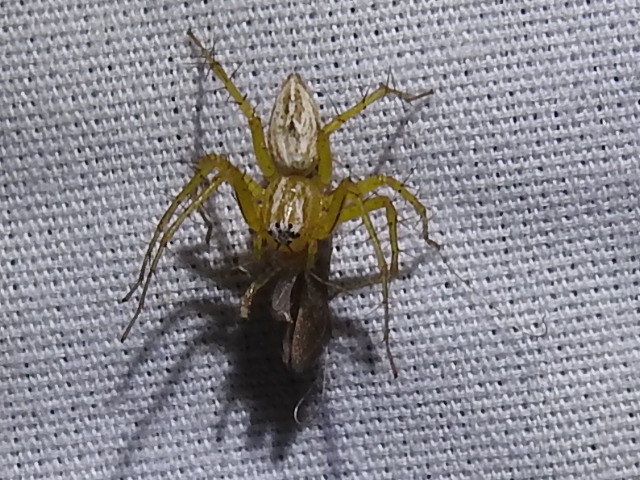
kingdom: Animalia
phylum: Arthropoda
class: Arachnida
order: Araneae
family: Oxyopidae
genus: Oxyopes
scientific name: Oxyopes salticus
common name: Lynx spiders
